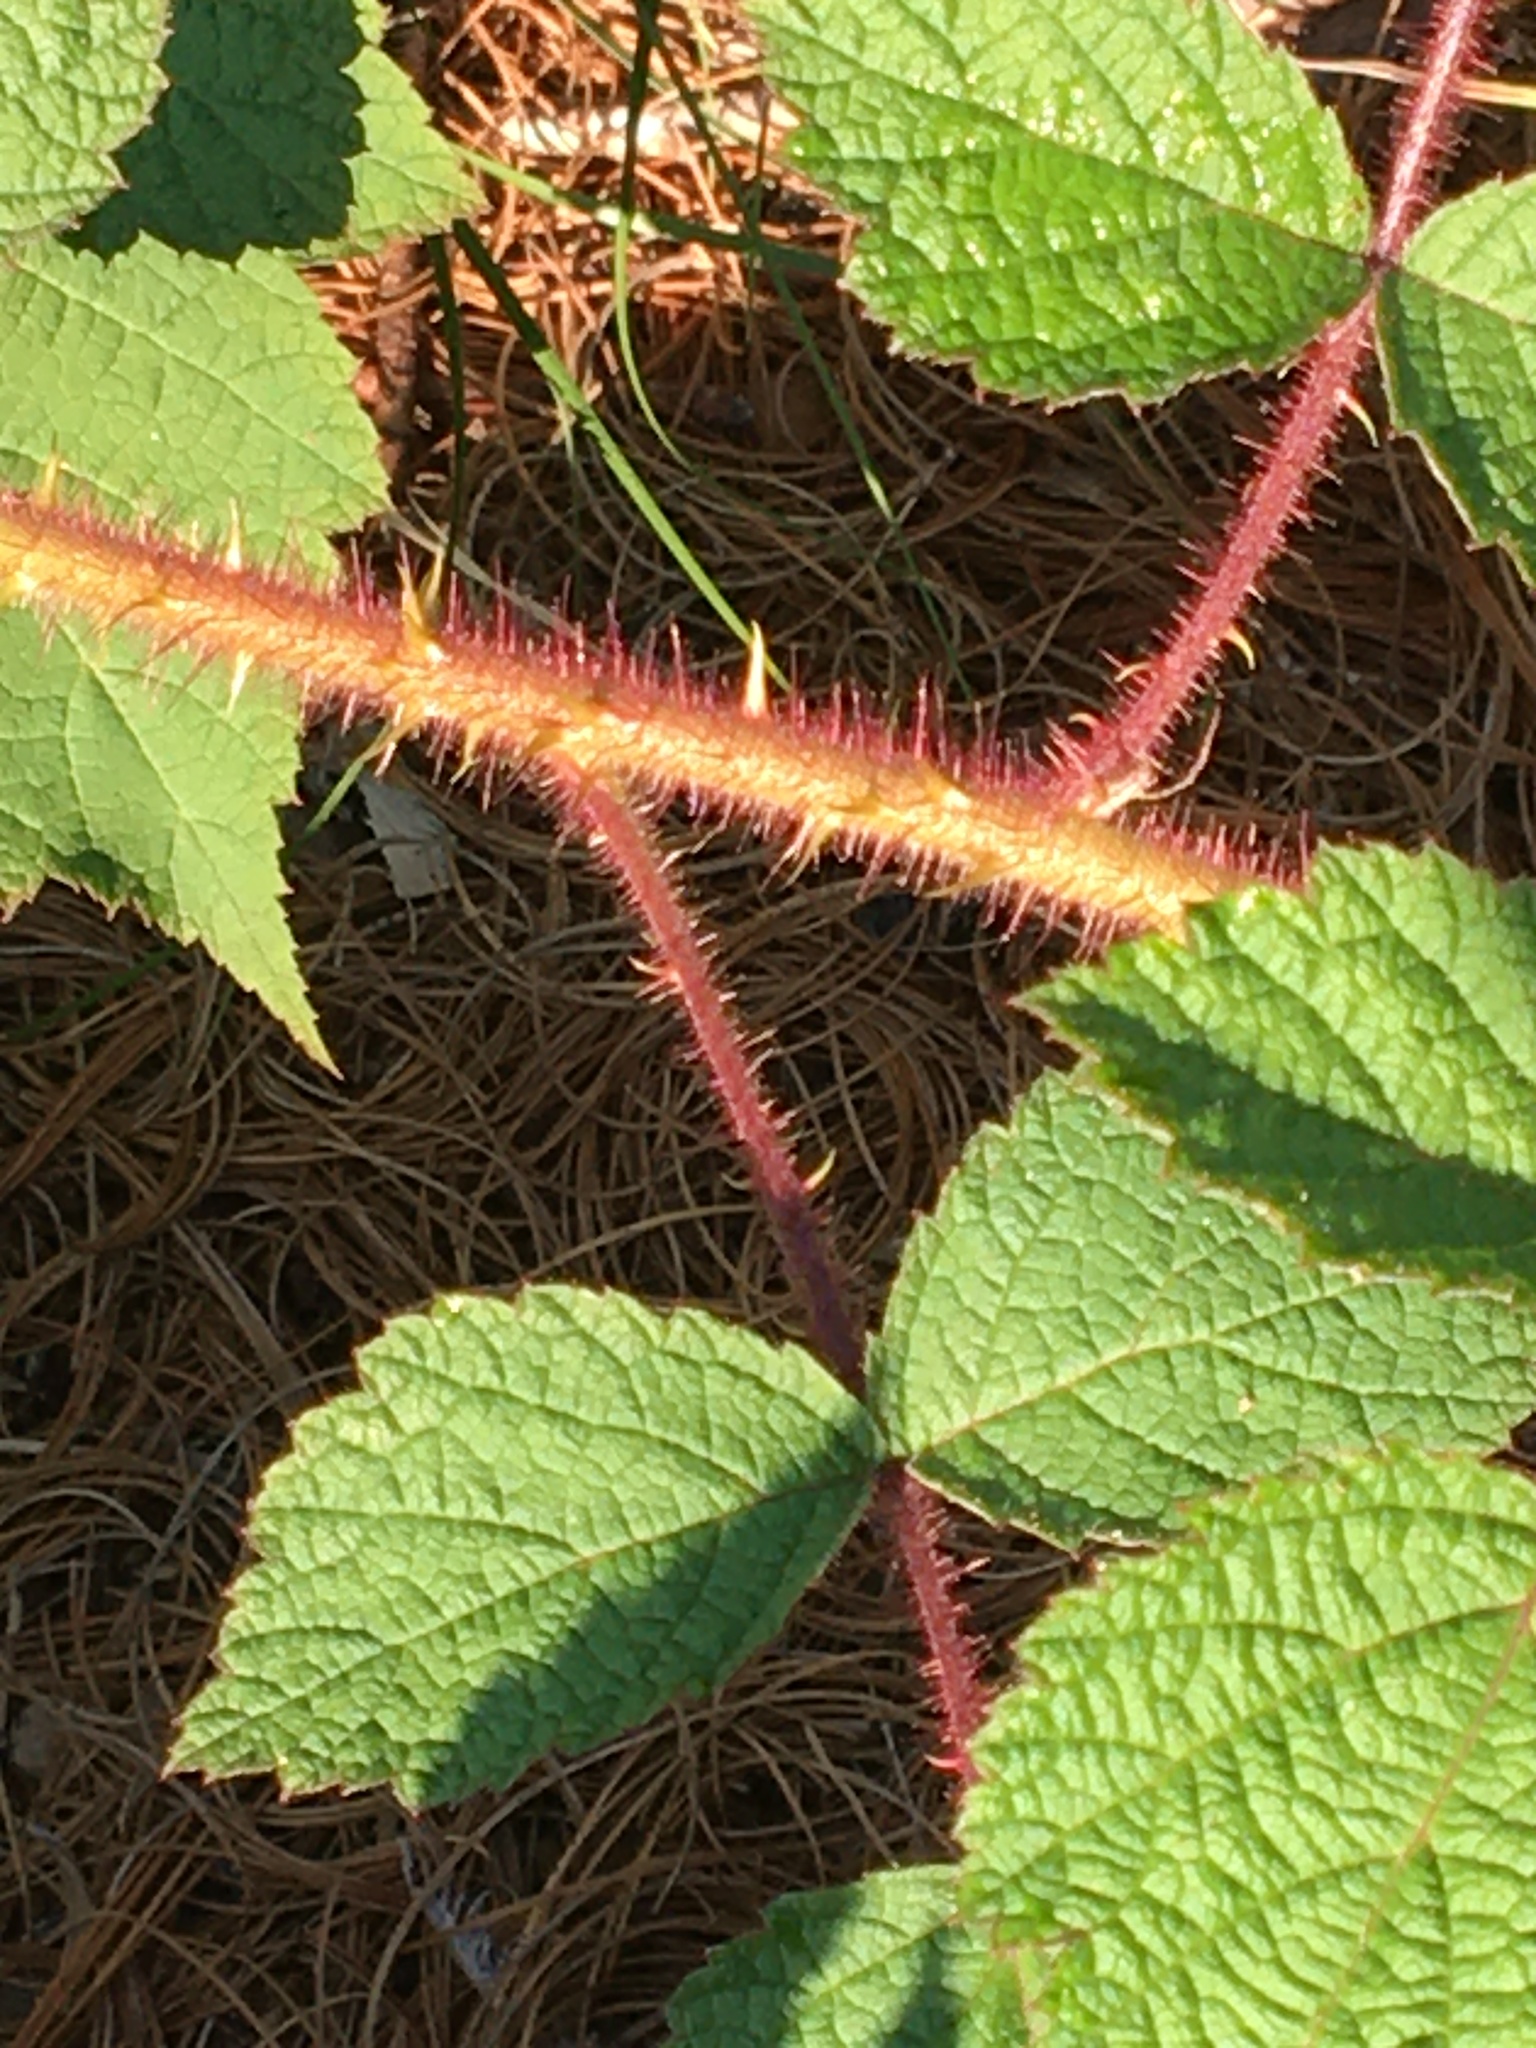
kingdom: Plantae
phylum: Tracheophyta
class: Magnoliopsida
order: Rosales
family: Rosaceae
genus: Rubus
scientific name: Rubus phoenicolasius
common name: Japanese wineberry
